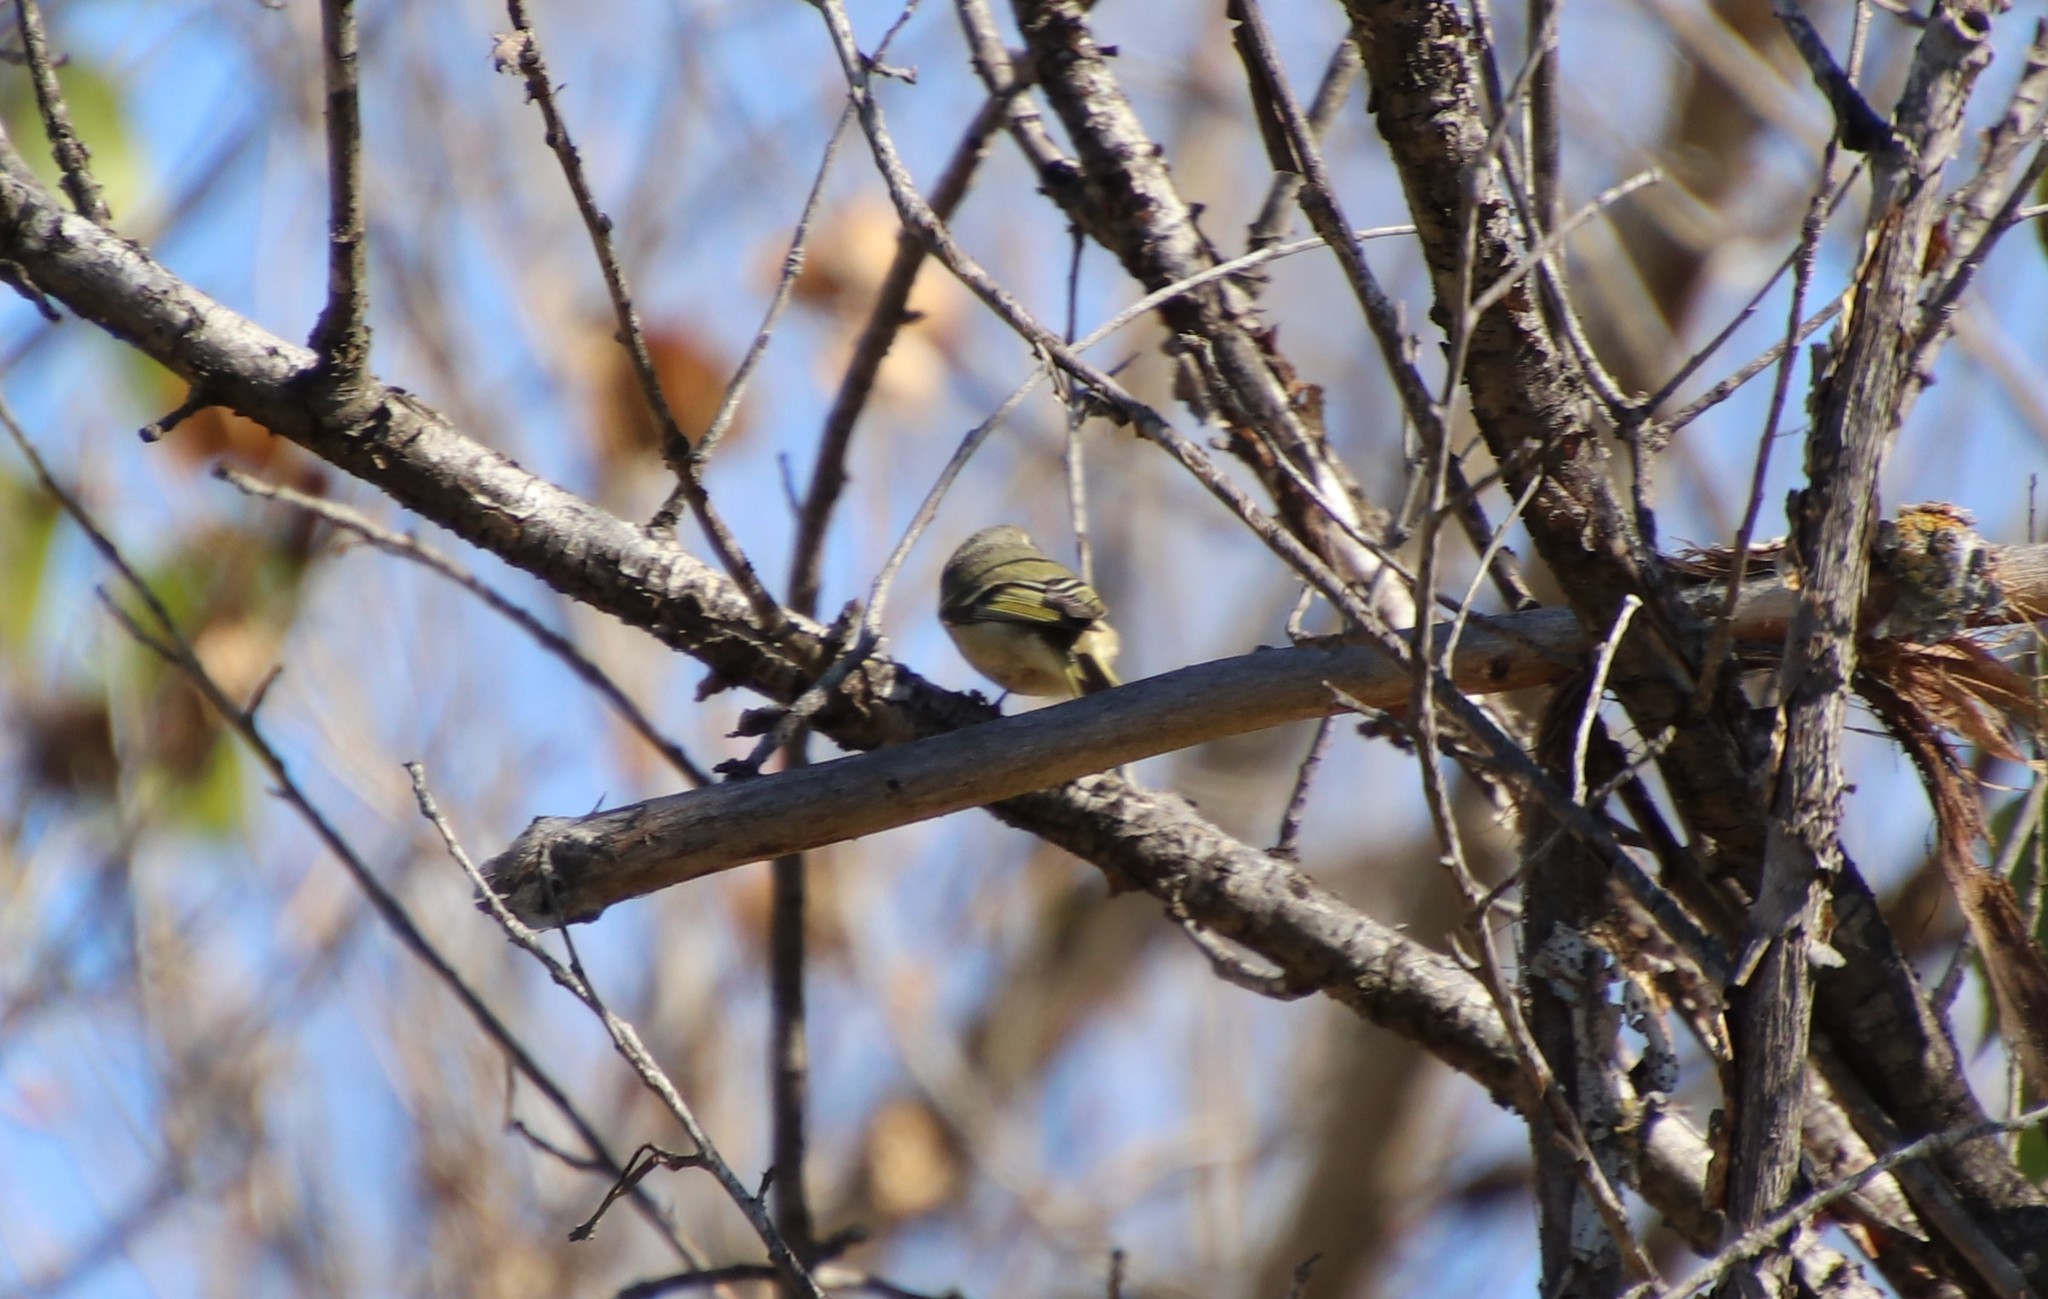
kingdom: Animalia
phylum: Chordata
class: Aves
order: Passeriformes
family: Regulidae
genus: Regulus
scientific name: Regulus calendula
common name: Ruby-crowned kinglet
